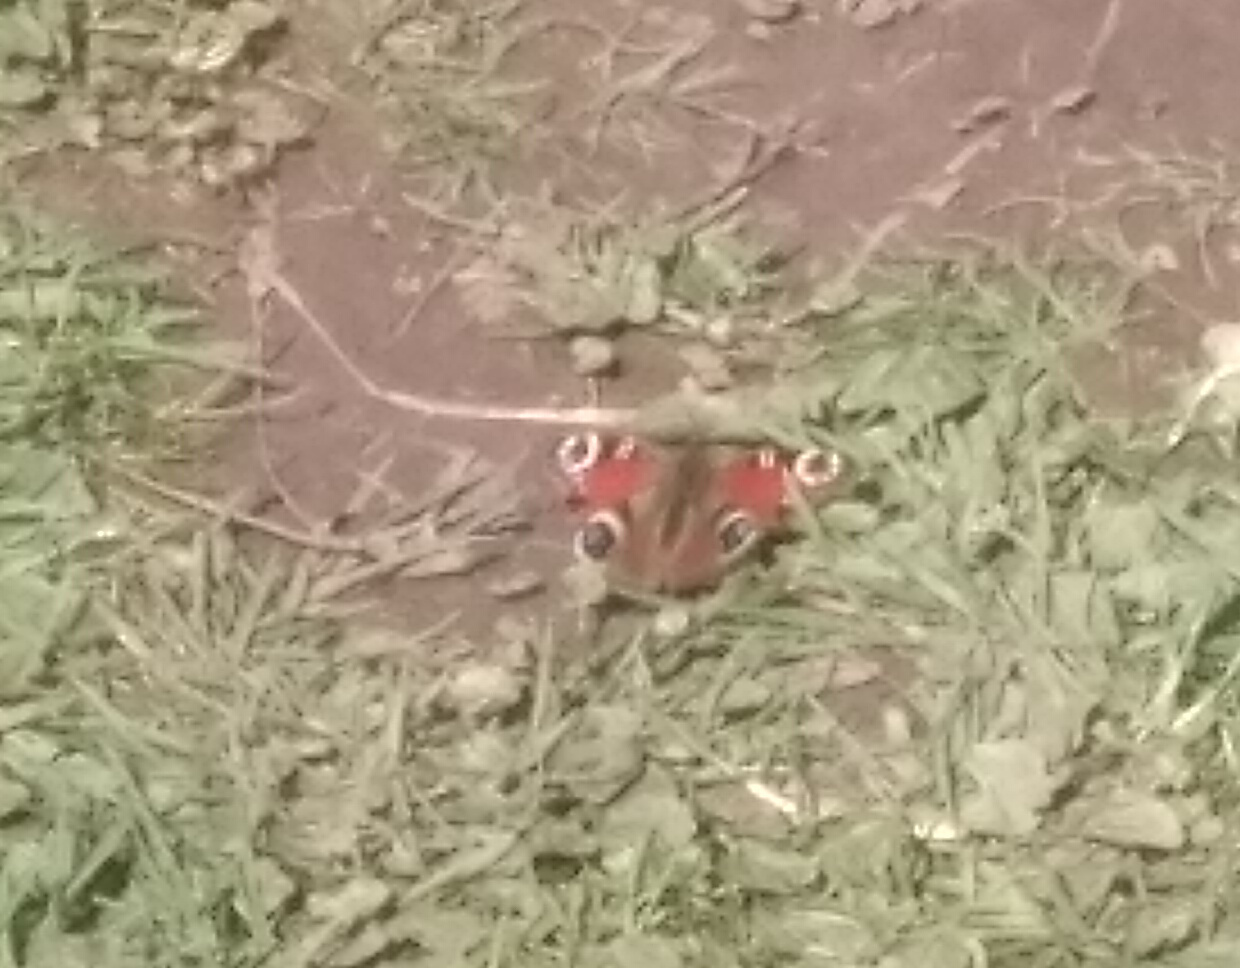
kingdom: Animalia
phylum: Arthropoda
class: Insecta
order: Lepidoptera
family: Nymphalidae
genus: Aglais
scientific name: Aglais io
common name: Peacock
